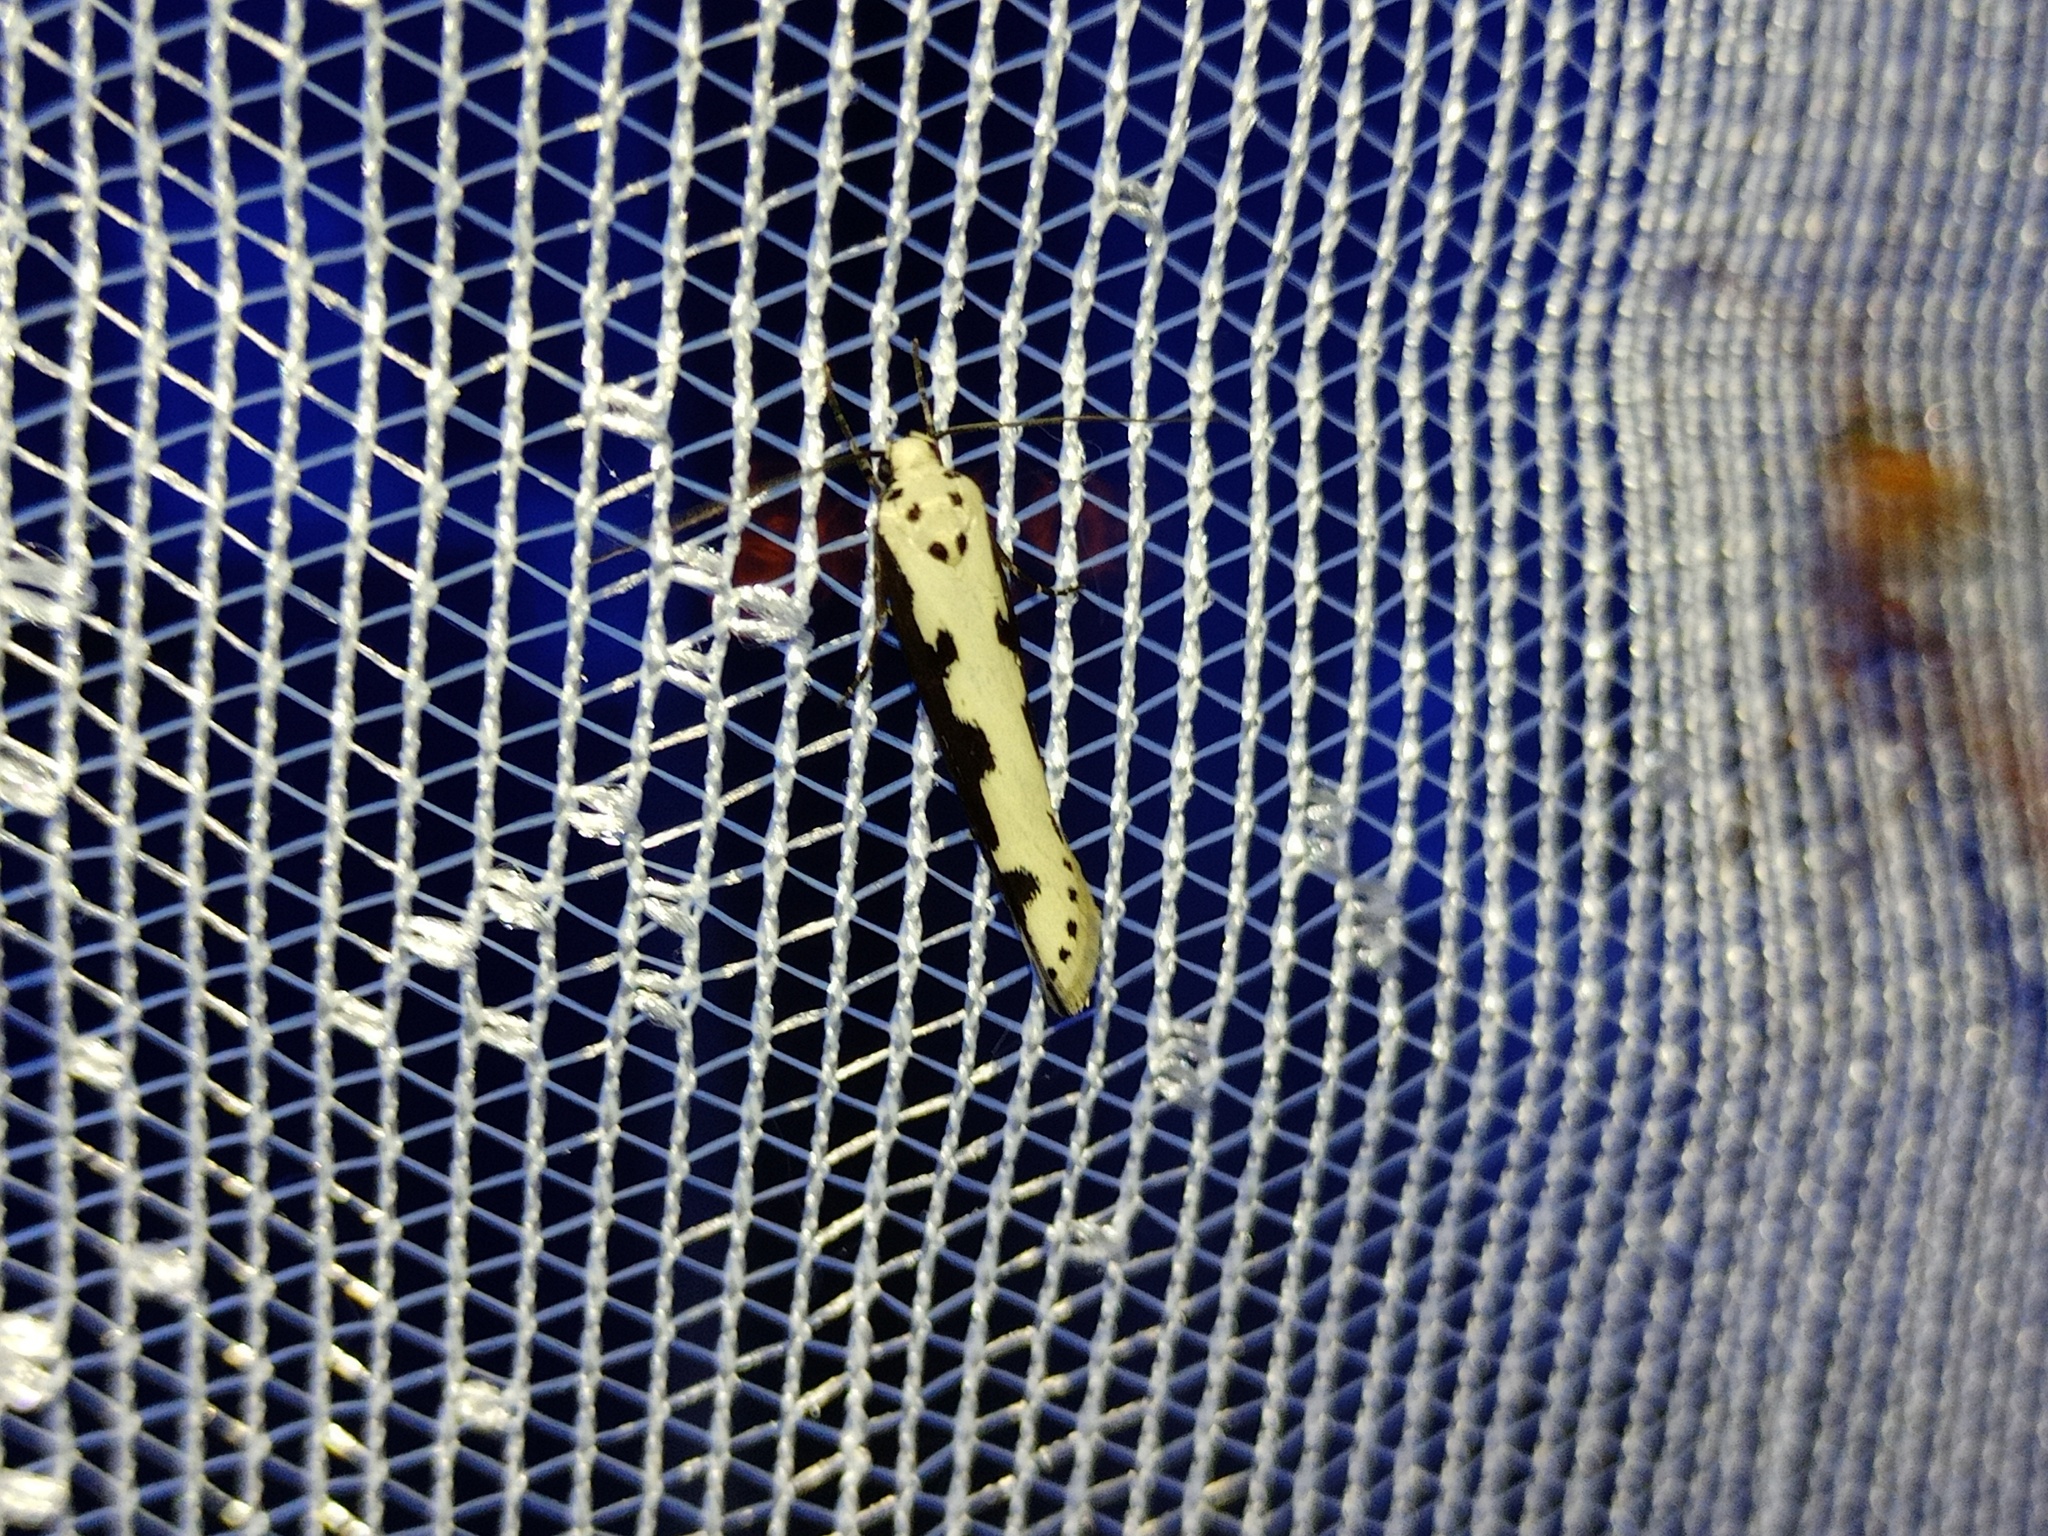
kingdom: Animalia
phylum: Arthropoda
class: Insecta
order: Lepidoptera
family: Ethmiidae
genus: Ethmia
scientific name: Ethmia bipunctella
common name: Bordered ermel
